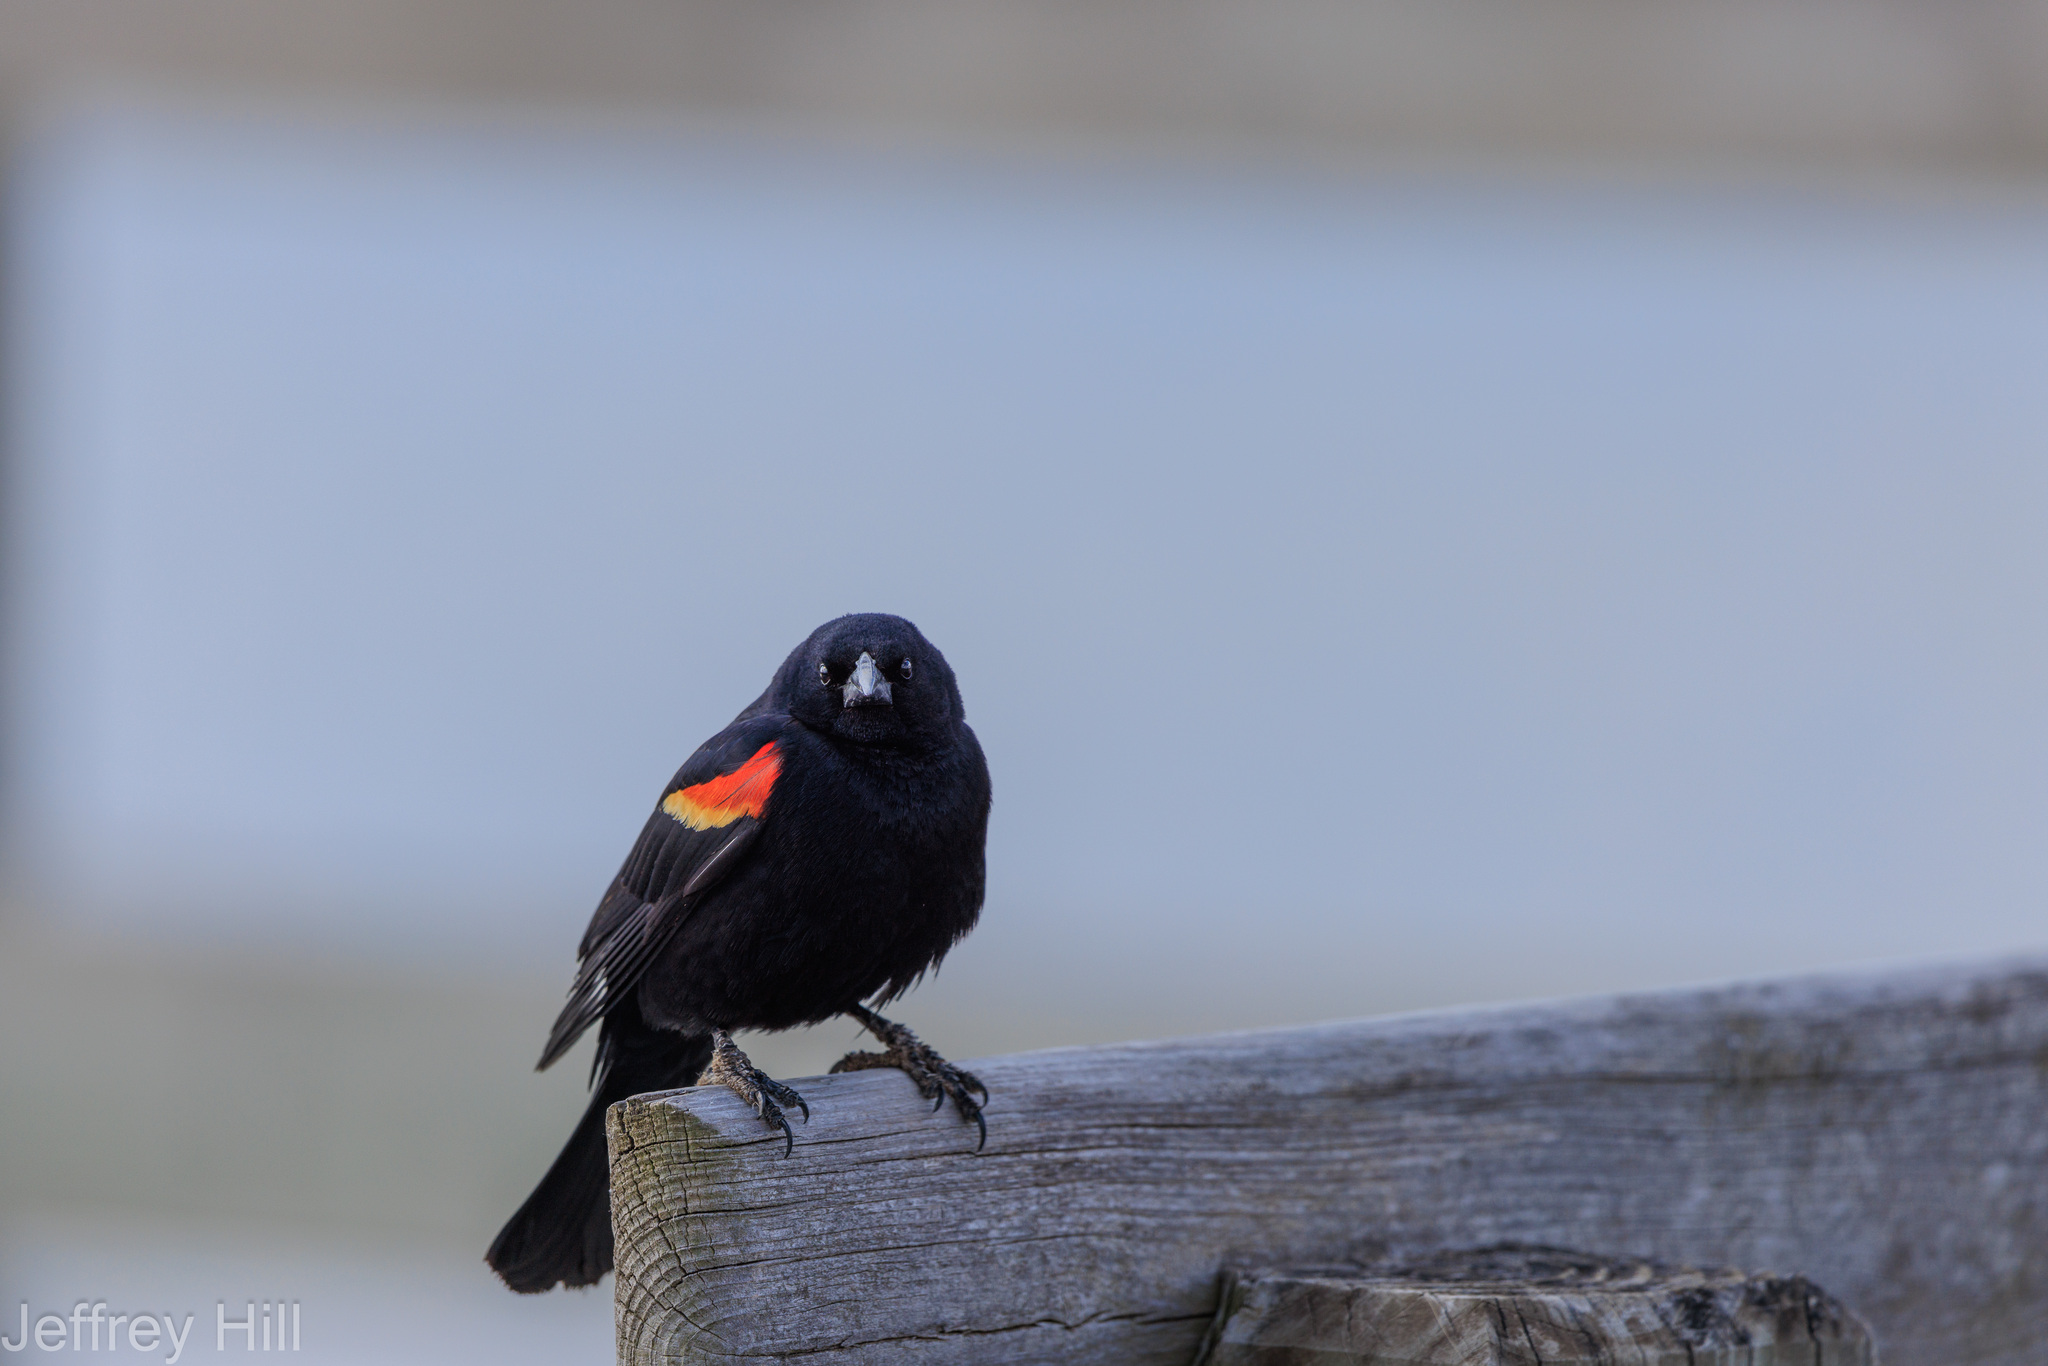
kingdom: Animalia
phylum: Chordata
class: Aves
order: Passeriformes
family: Icteridae
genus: Agelaius
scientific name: Agelaius phoeniceus
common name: Red-winged blackbird
